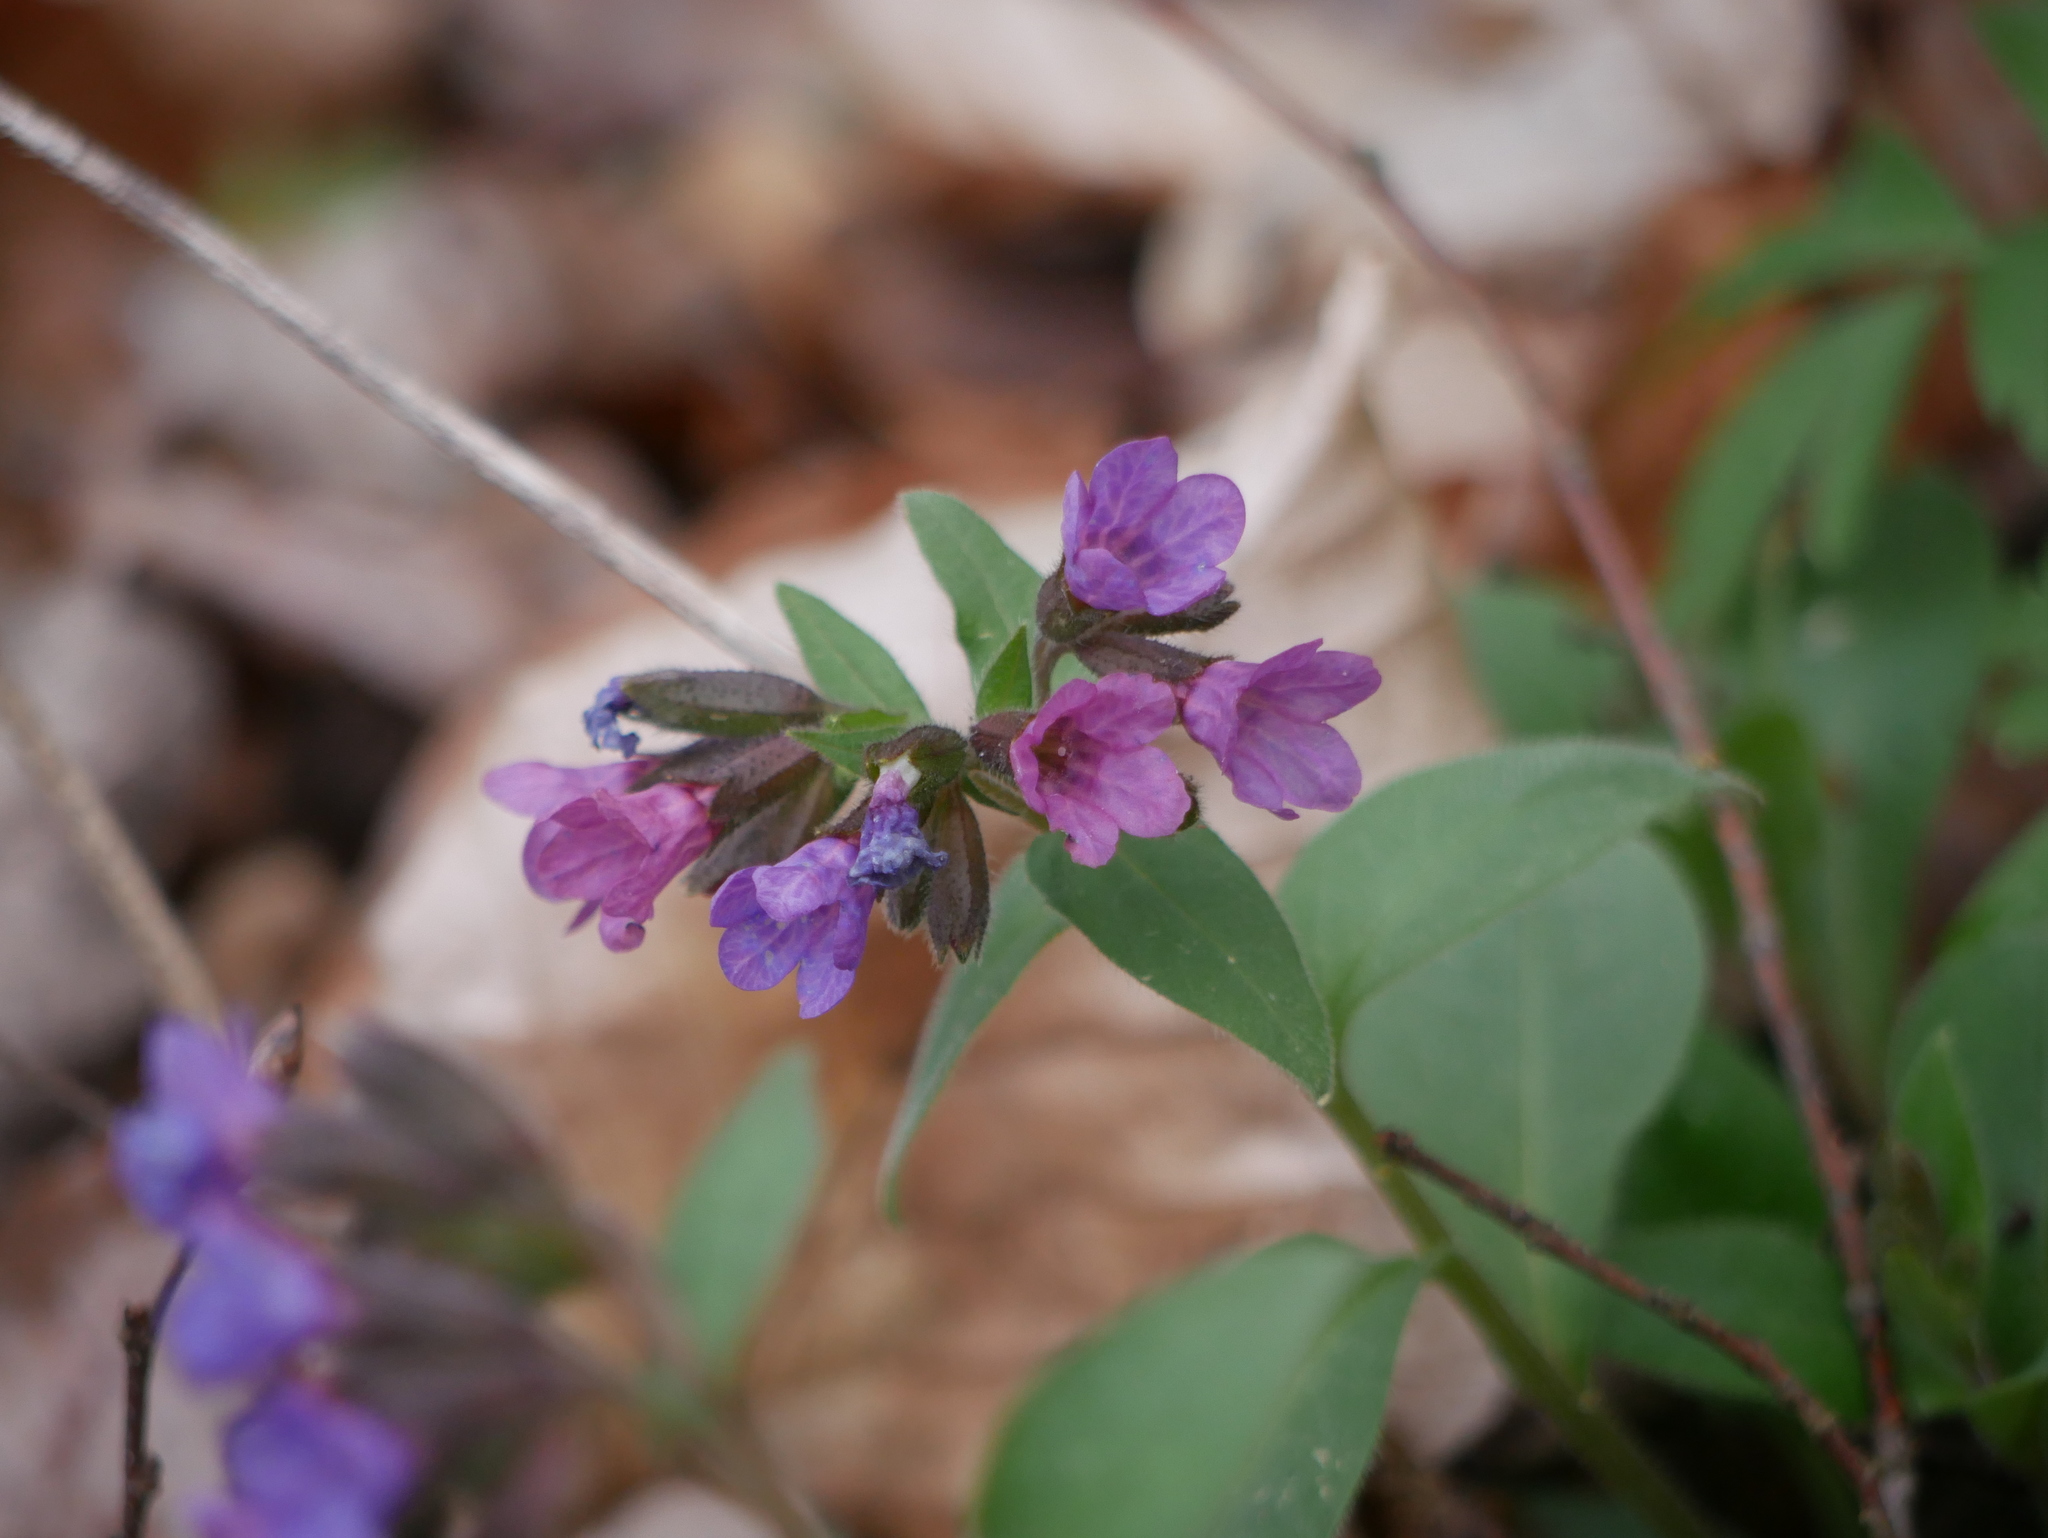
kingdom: Plantae
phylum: Tracheophyta
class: Magnoliopsida
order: Boraginales
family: Boraginaceae
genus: Pulmonaria
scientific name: Pulmonaria obscura
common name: Suffolk lungwort
